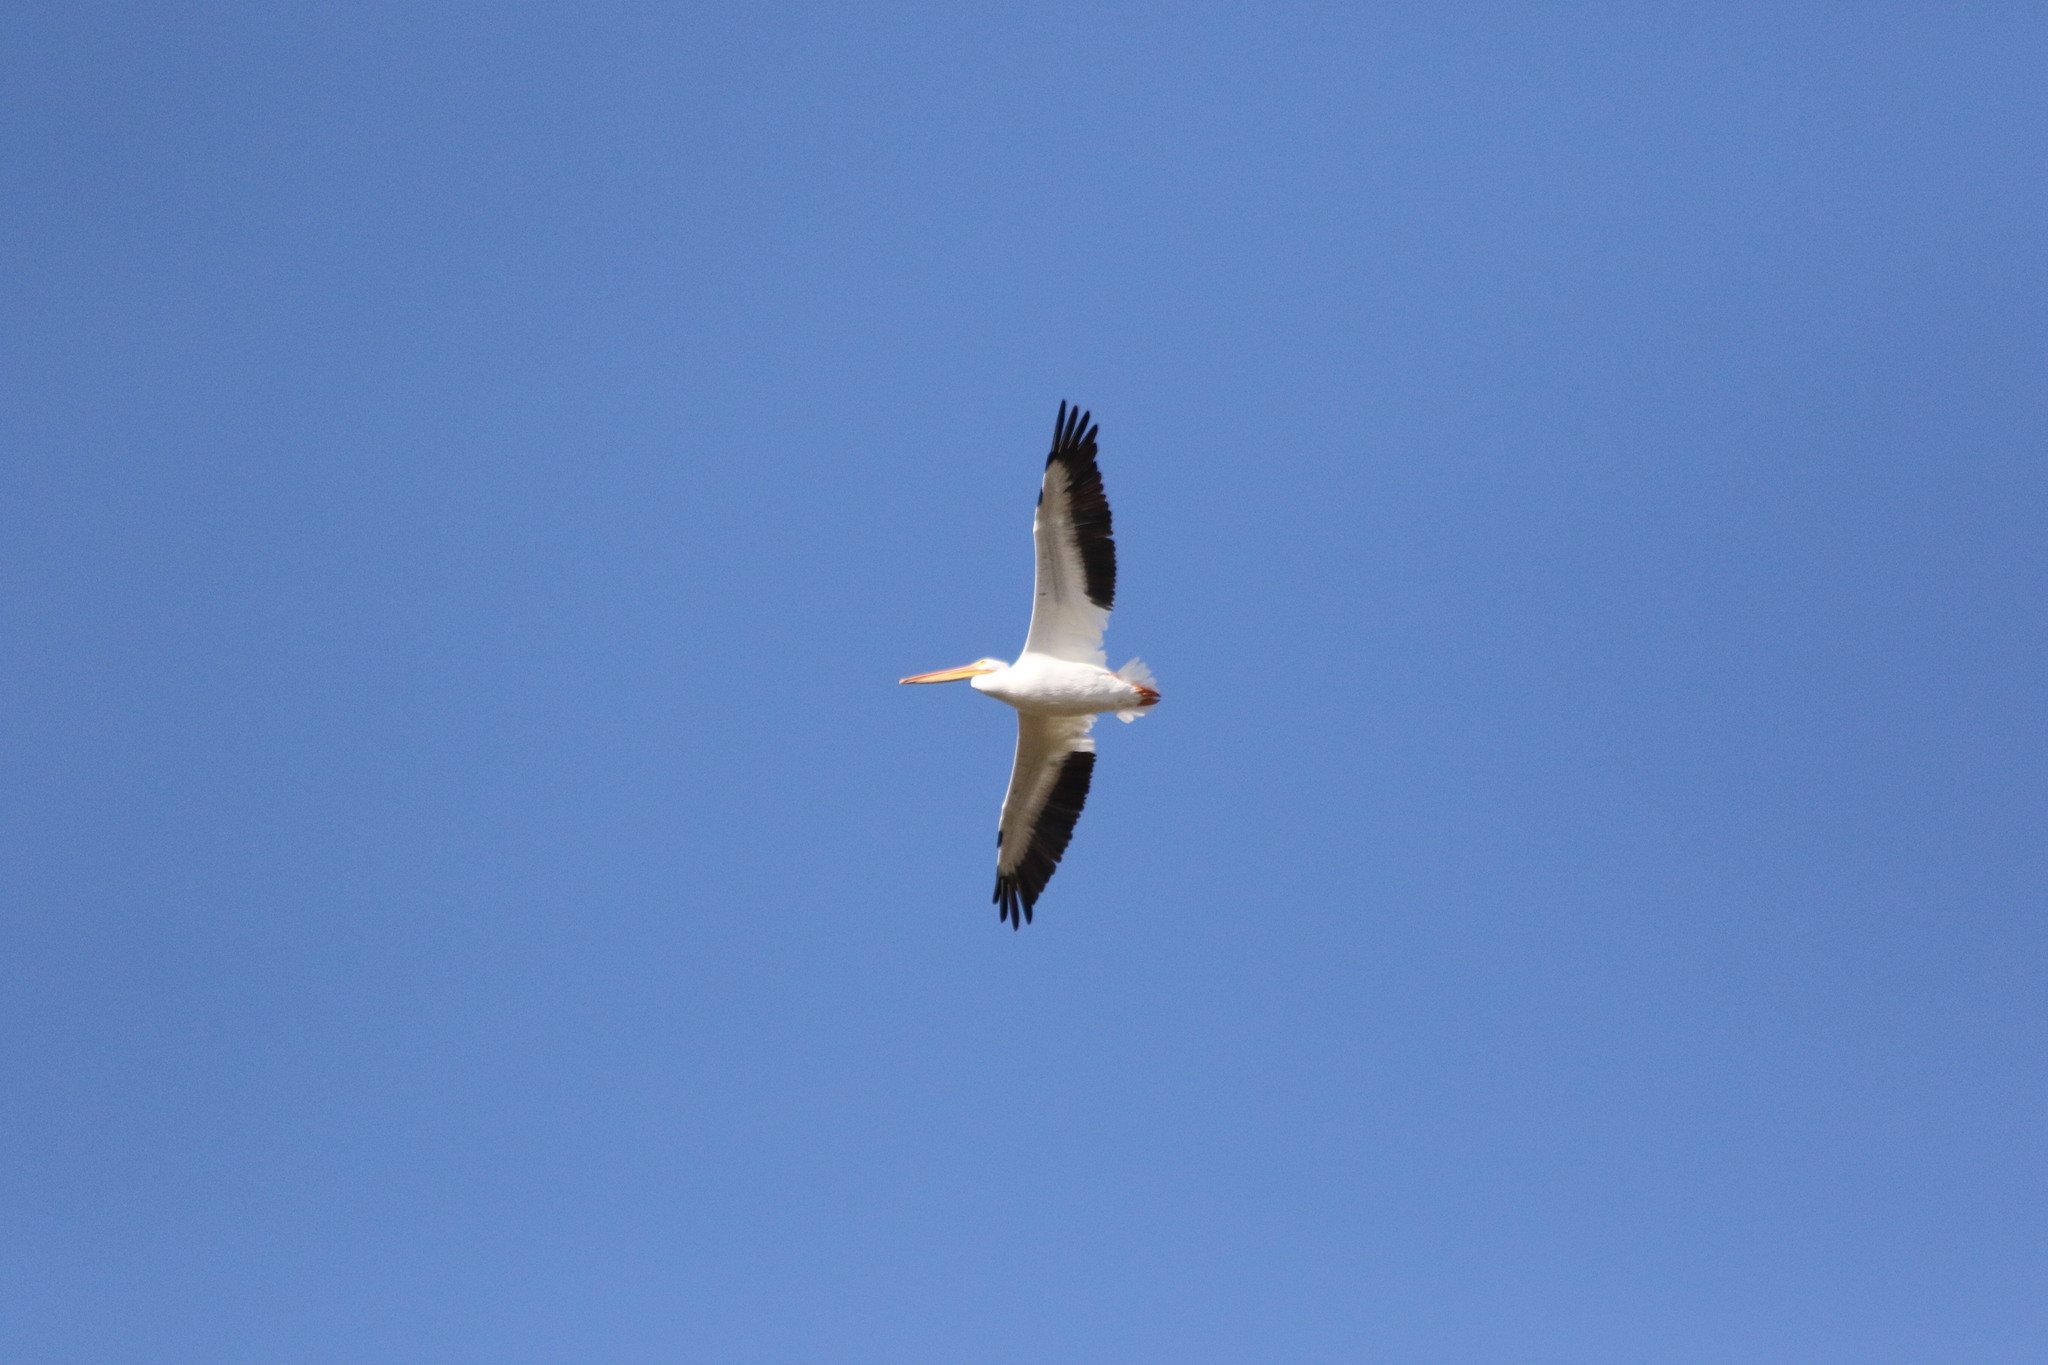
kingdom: Animalia
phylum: Chordata
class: Aves
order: Pelecaniformes
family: Pelecanidae
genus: Pelecanus
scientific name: Pelecanus erythrorhynchos
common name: American white pelican
